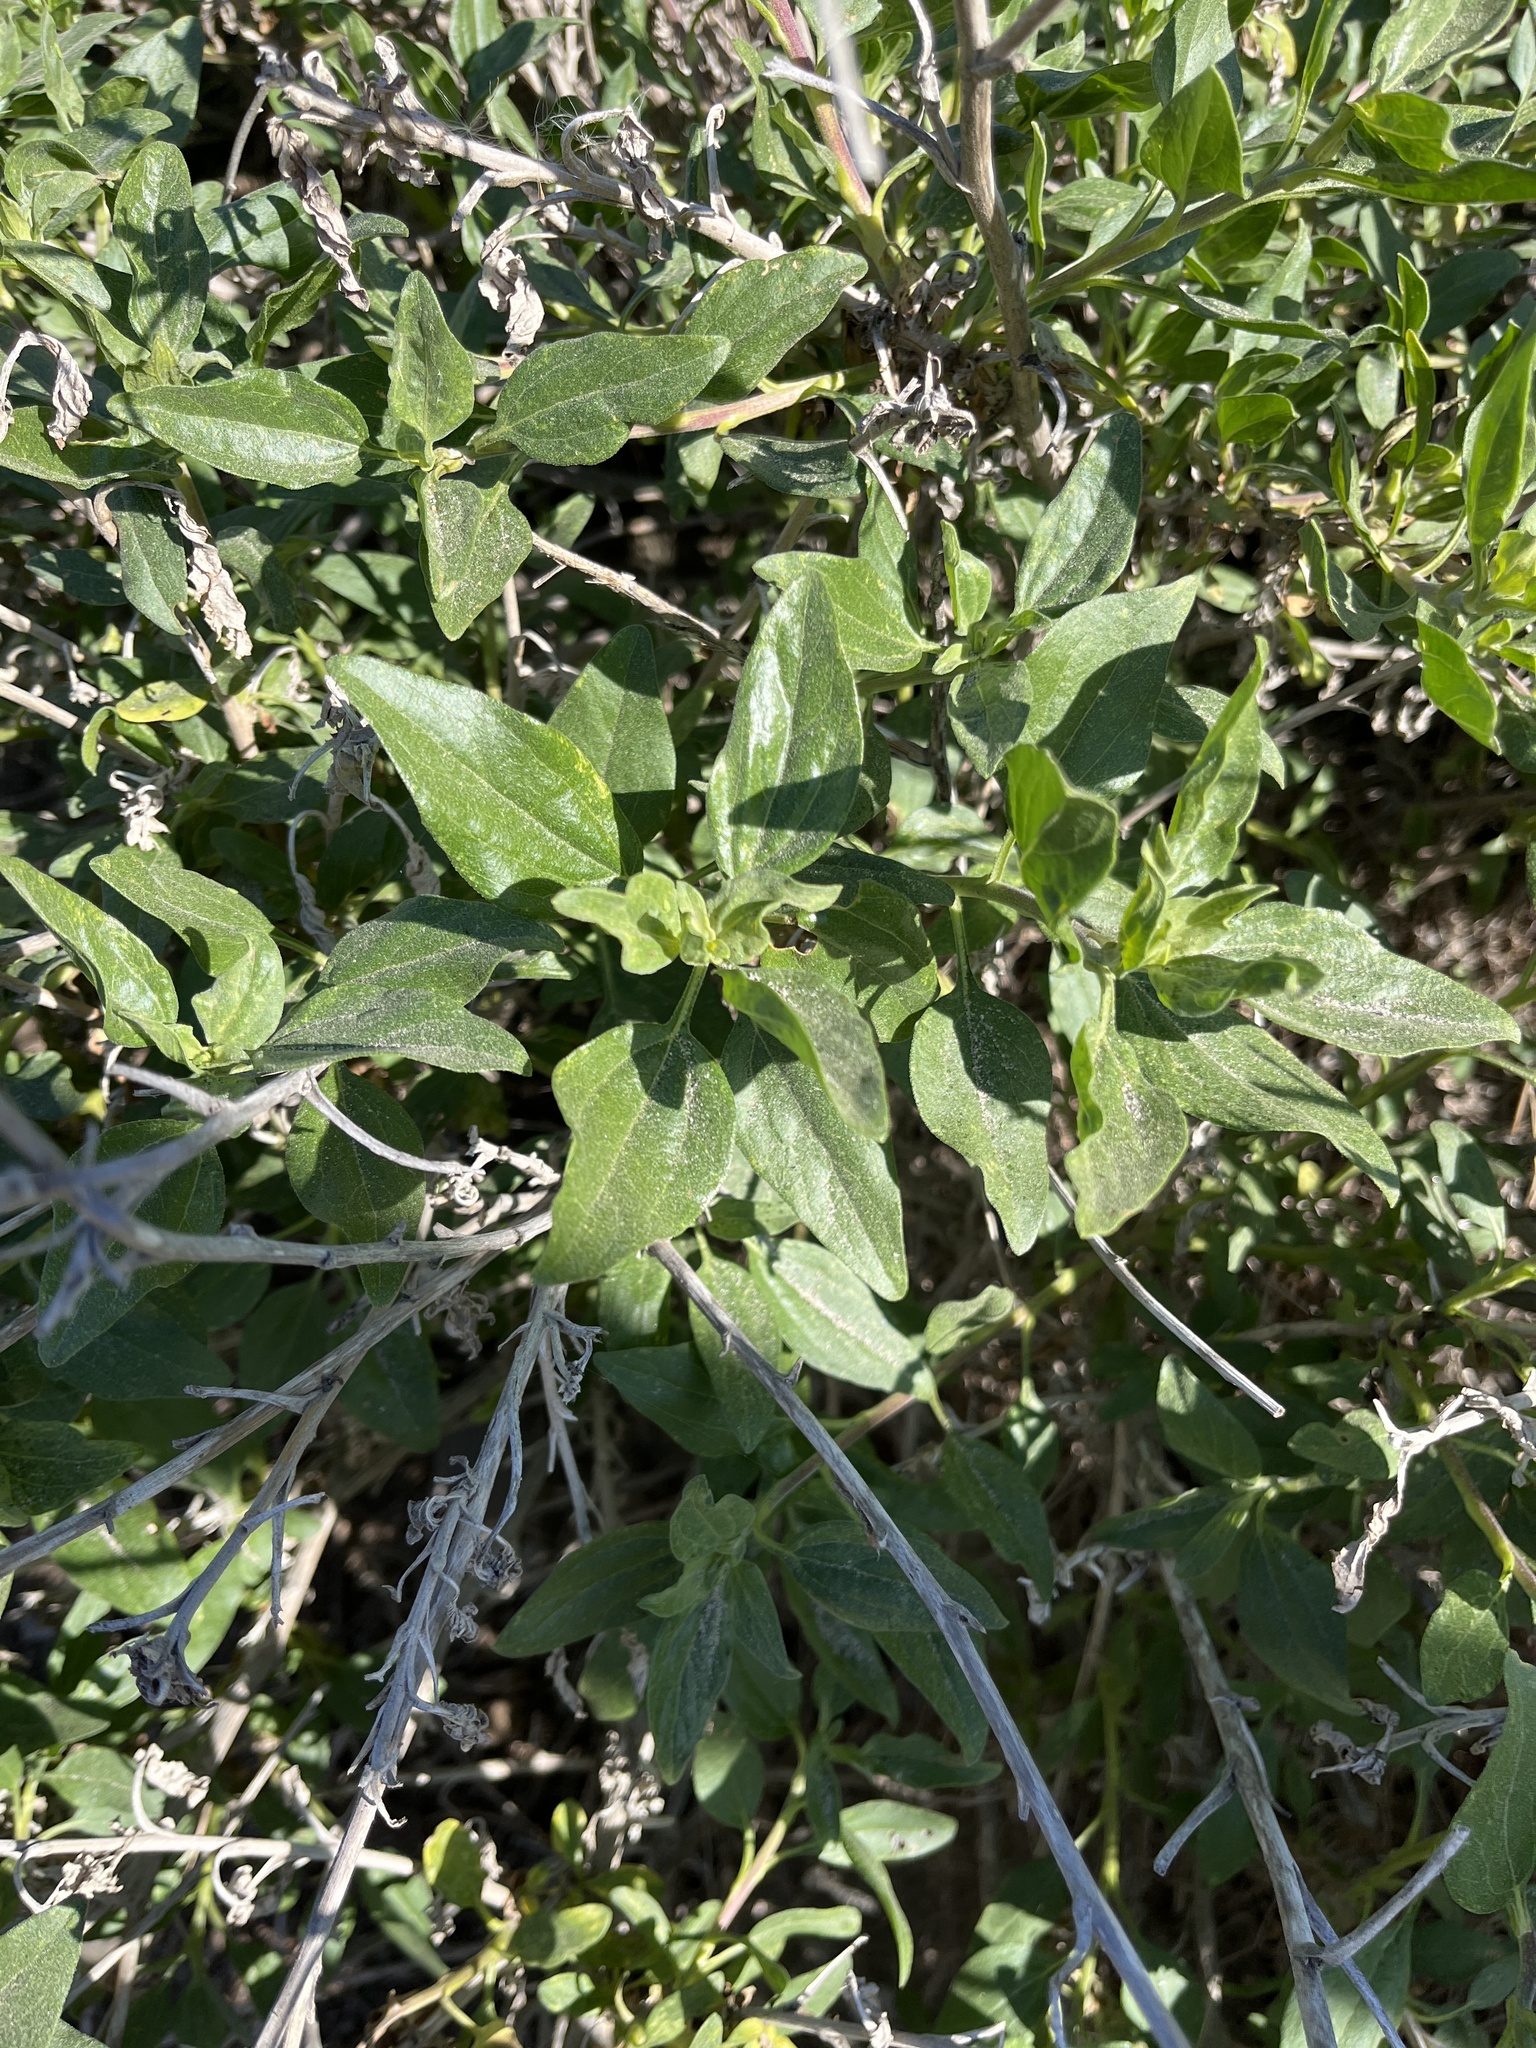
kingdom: Plantae
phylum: Tracheophyta
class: Magnoliopsida
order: Asterales
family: Asteraceae
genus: Encelia
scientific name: Encelia californica
